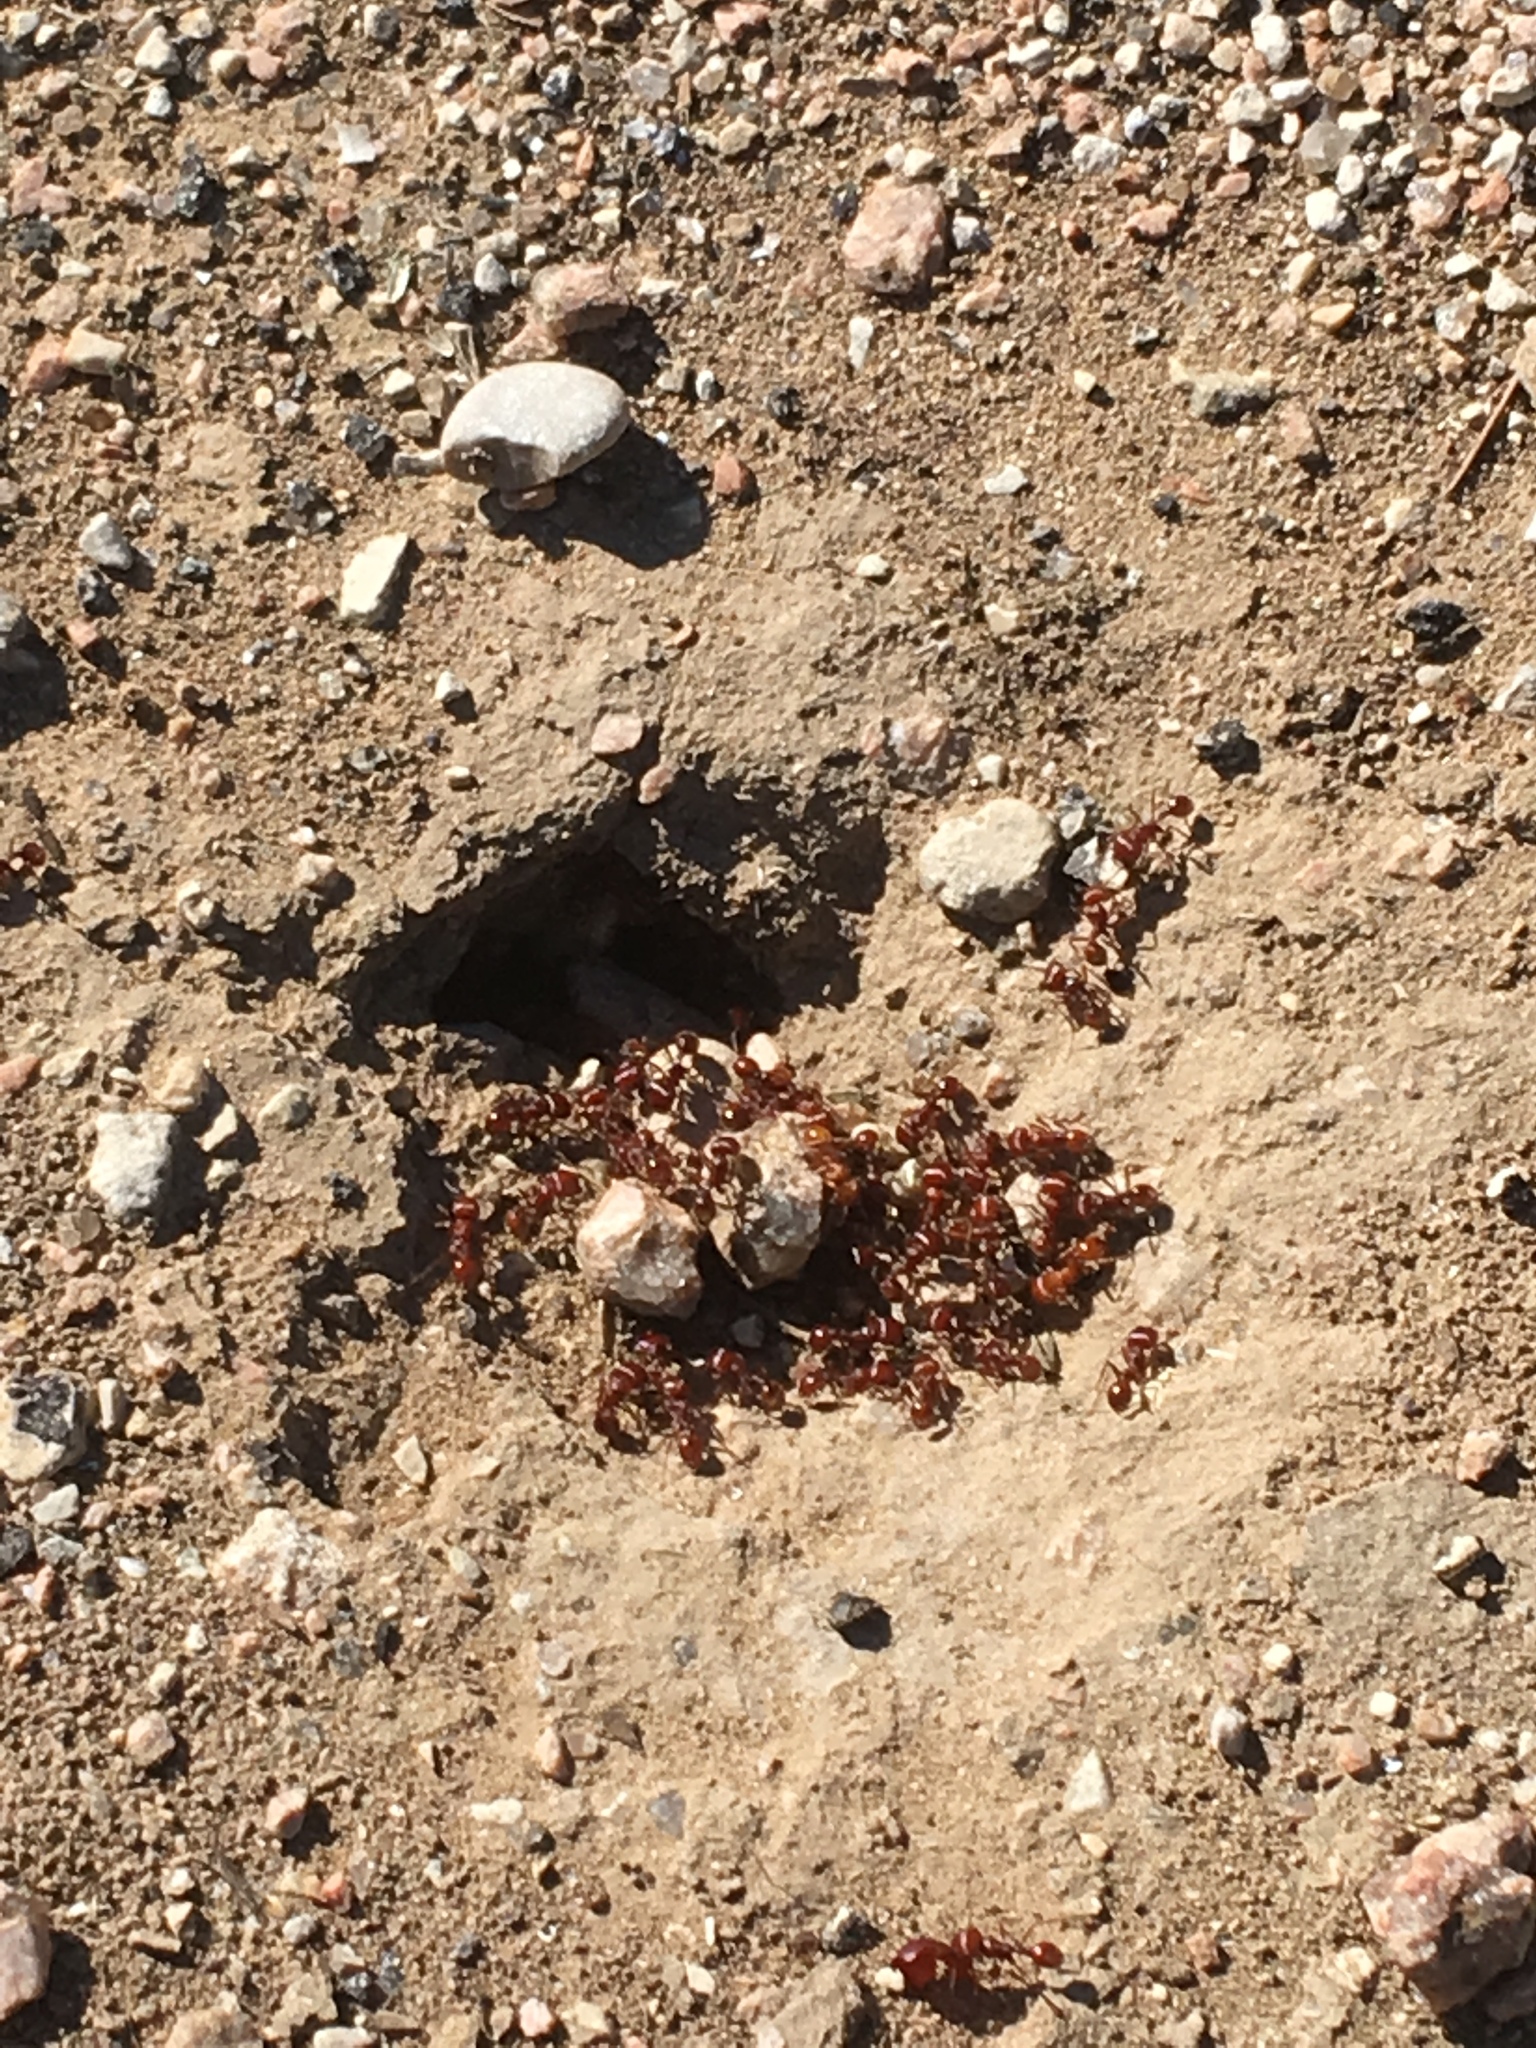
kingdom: Animalia
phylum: Arthropoda
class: Insecta
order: Hymenoptera
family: Formicidae
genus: Pogonomyrmex
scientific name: Pogonomyrmex barbatus
